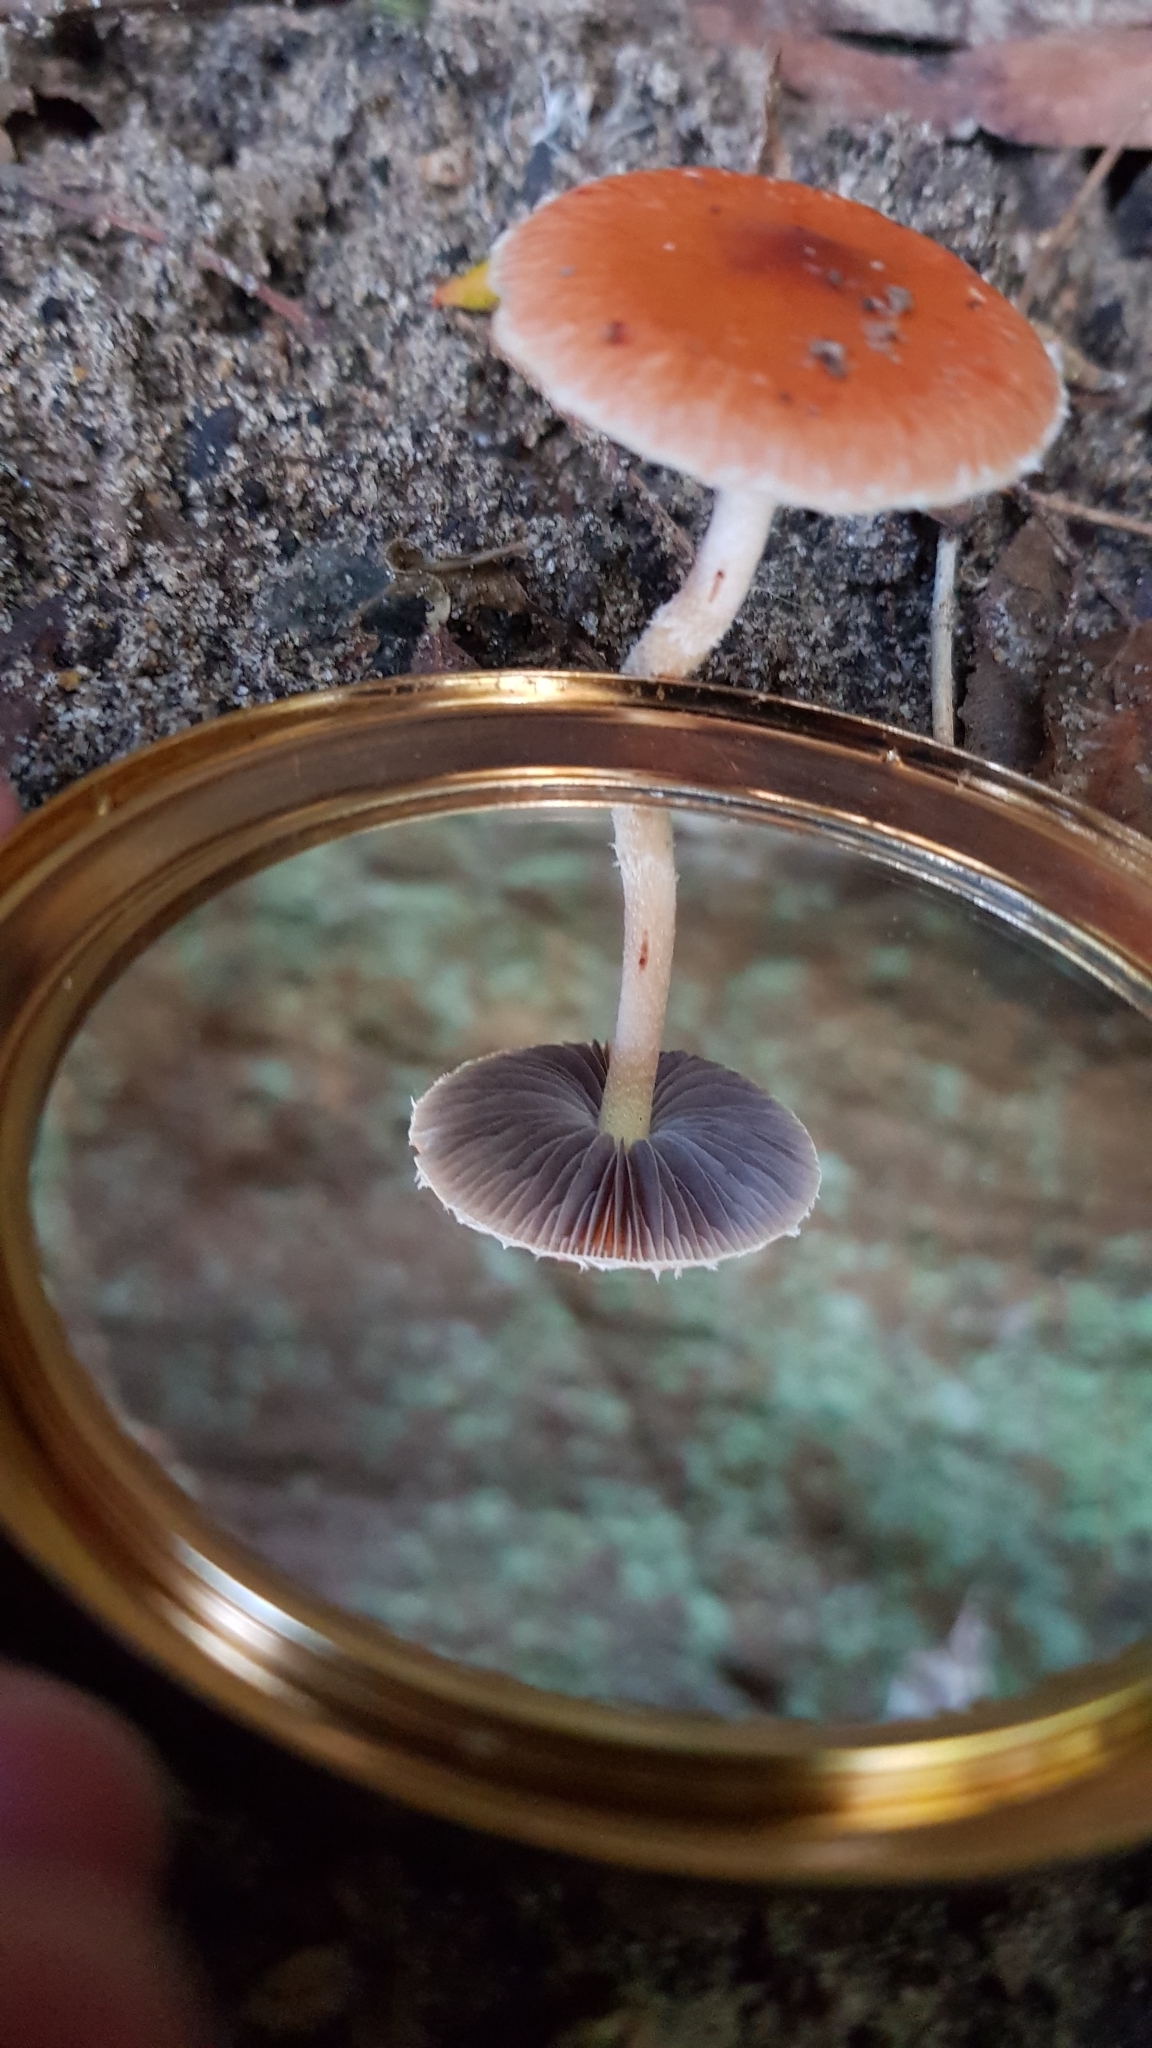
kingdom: Fungi
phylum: Basidiomycota
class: Agaricomycetes
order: Agaricales
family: Strophariaceae
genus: Leratiomyces
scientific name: Leratiomyces ceres
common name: Redlead roundhead
